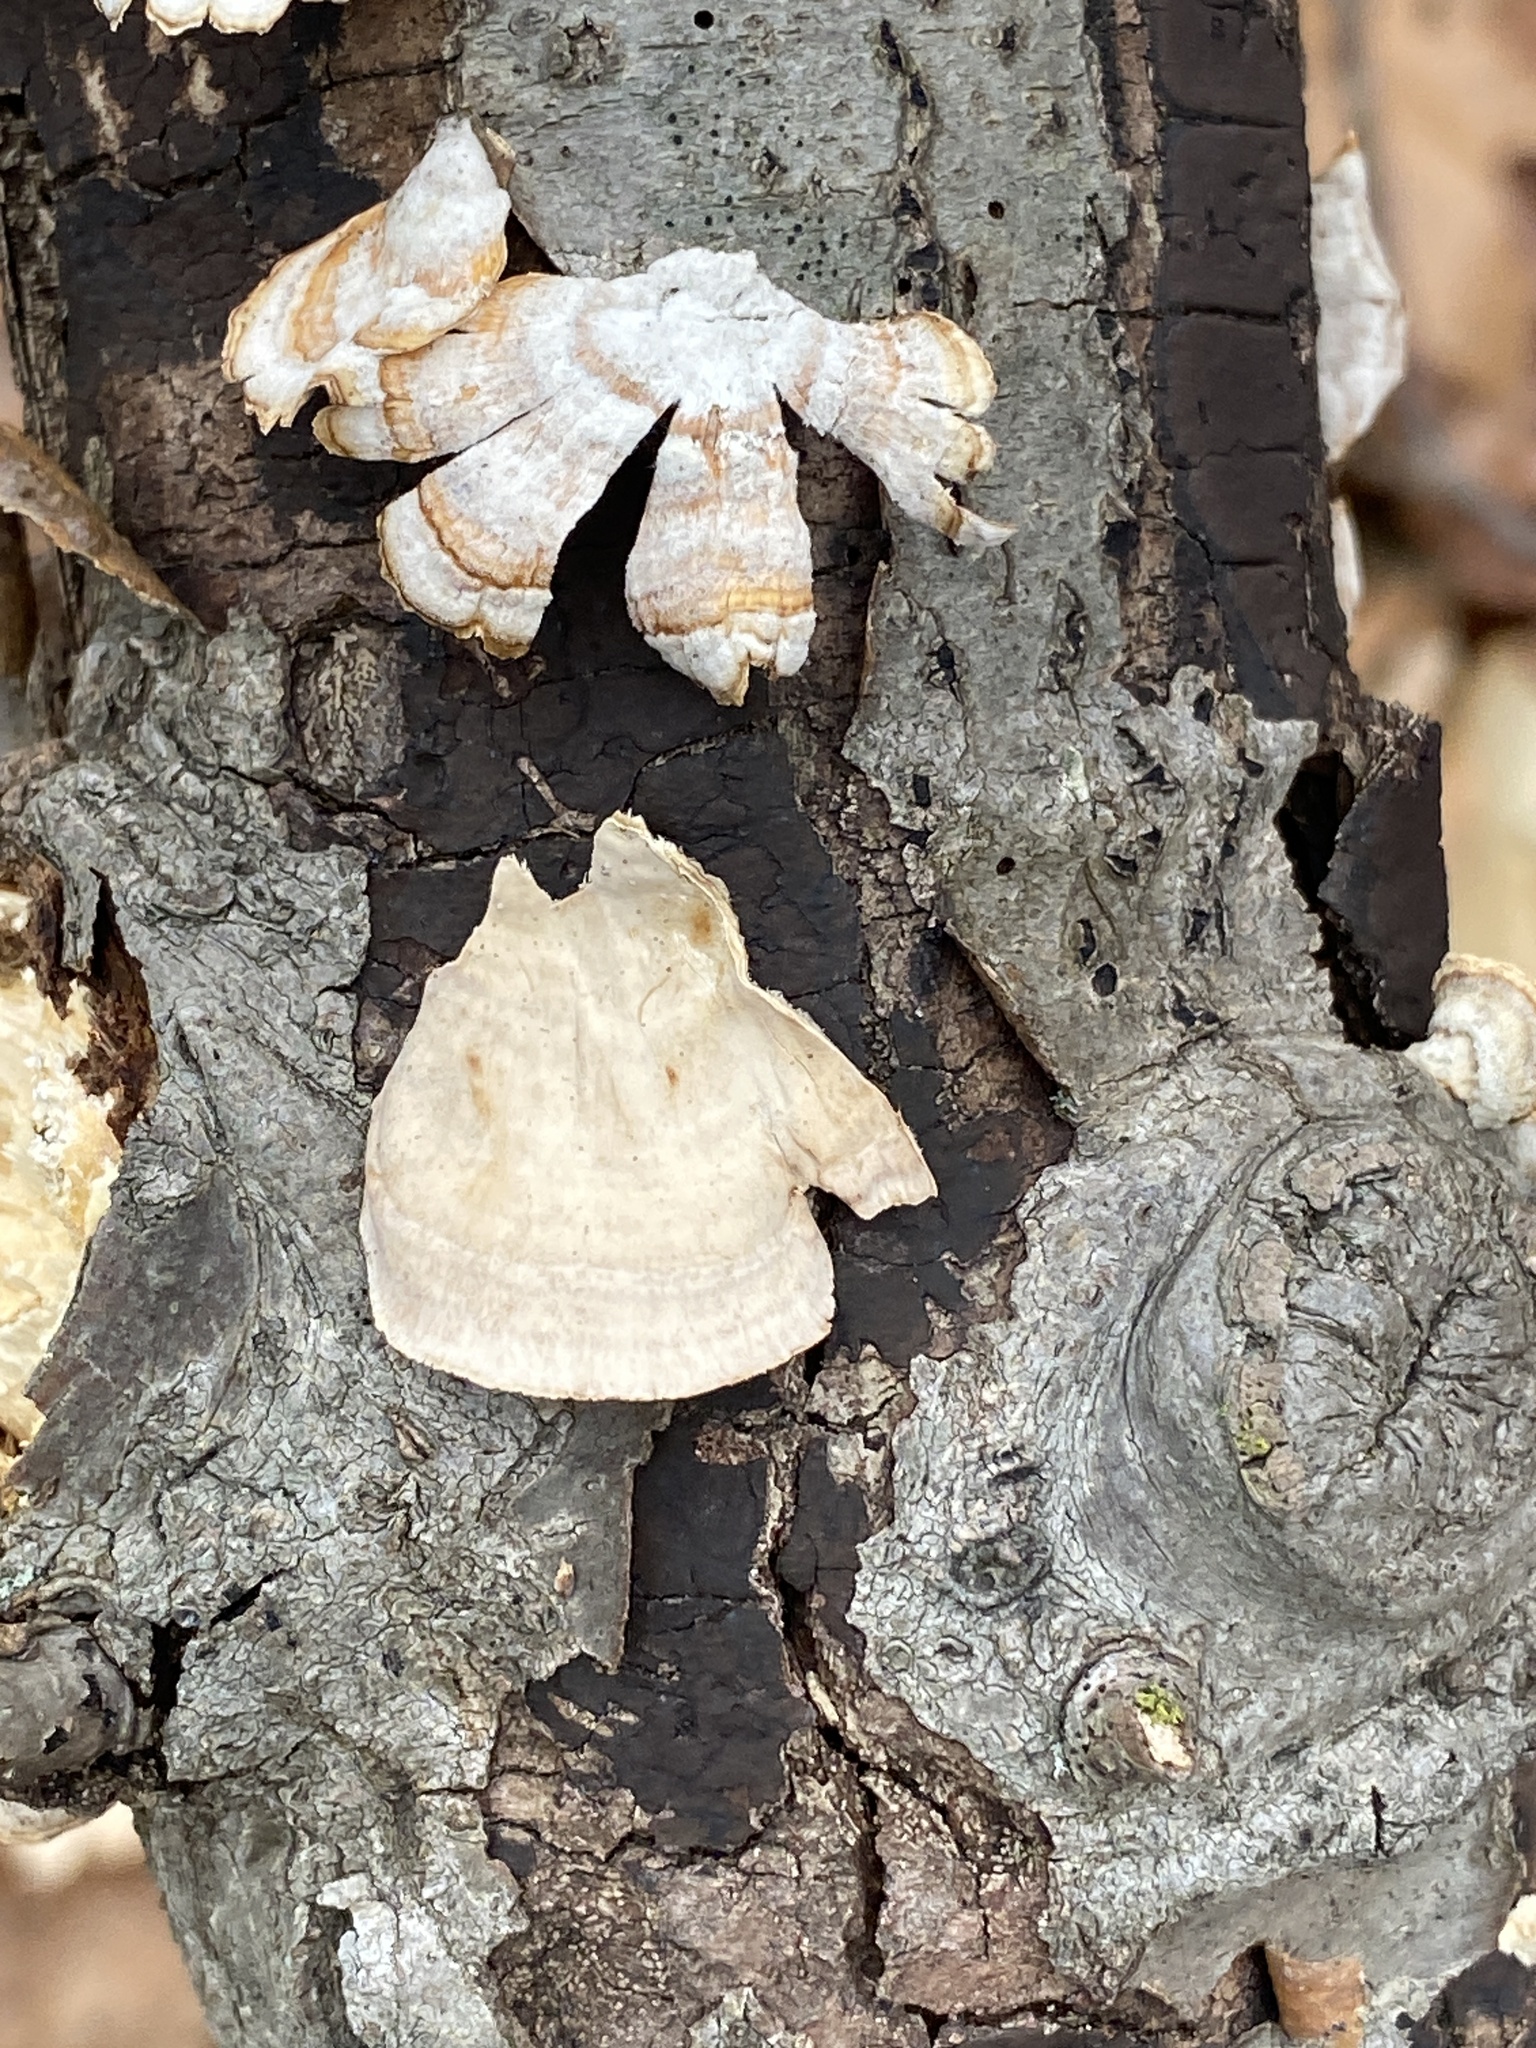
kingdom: Fungi
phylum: Basidiomycota
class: Agaricomycetes
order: Russulales
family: Stereaceae
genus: Stereum
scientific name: Stereum lobatum
